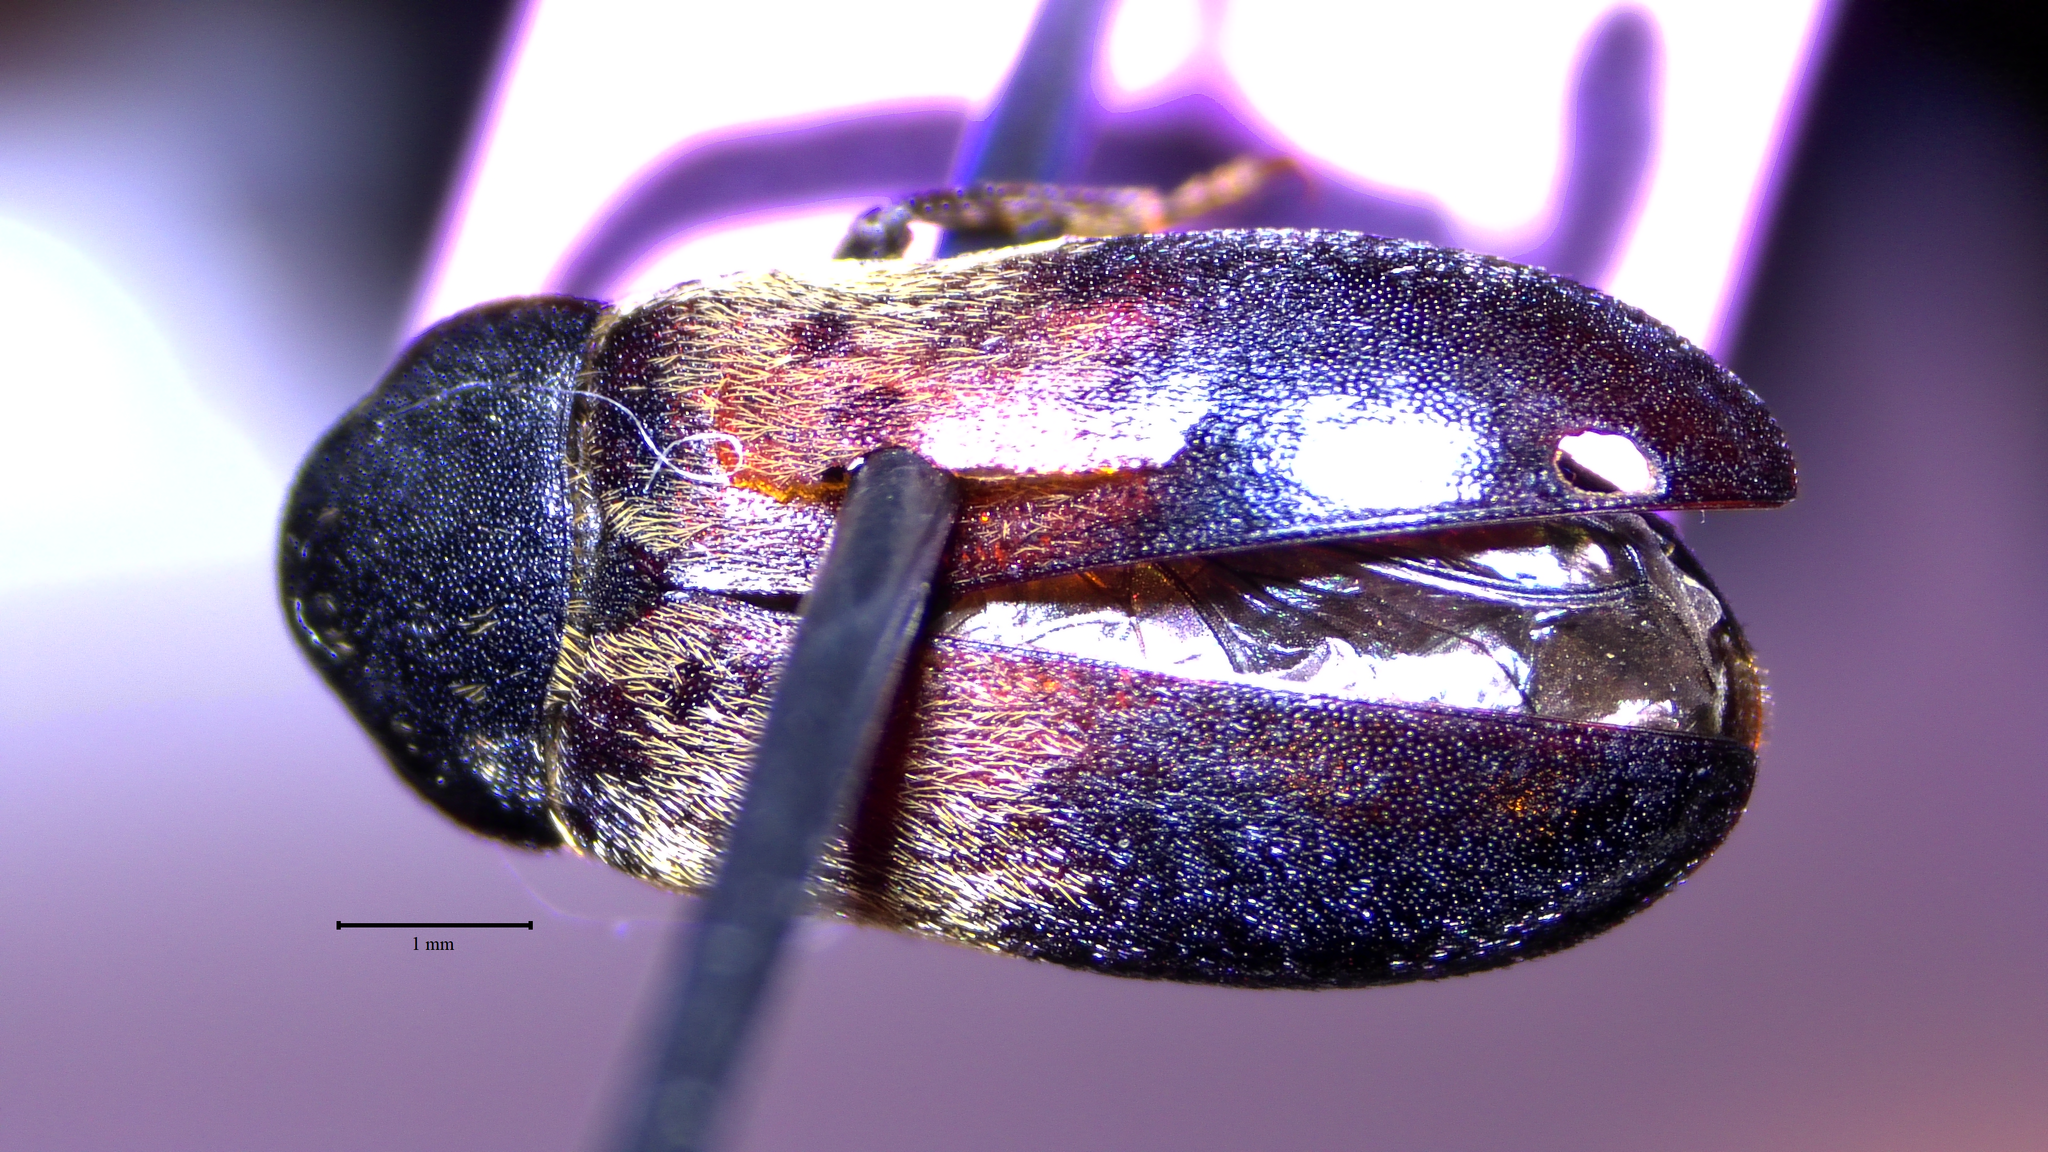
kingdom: Animalia
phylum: Arthropoda
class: Insecta
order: Coleoptera
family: Dermestidae
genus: Dermestes
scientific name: Dermestes lardarius
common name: Larder beetle
